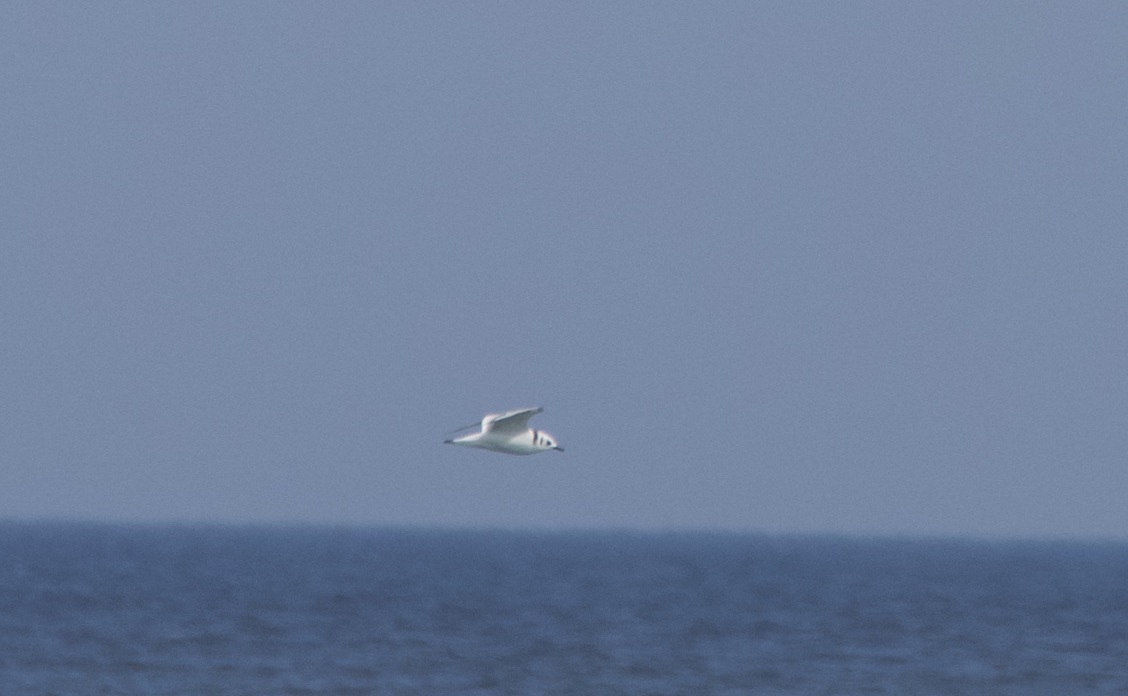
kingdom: Animalia
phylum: Chordata
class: Aves
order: Charadriiformes
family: Laridae
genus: Rissa
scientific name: Rissa tridactyla
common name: Black-legged kittiwake
